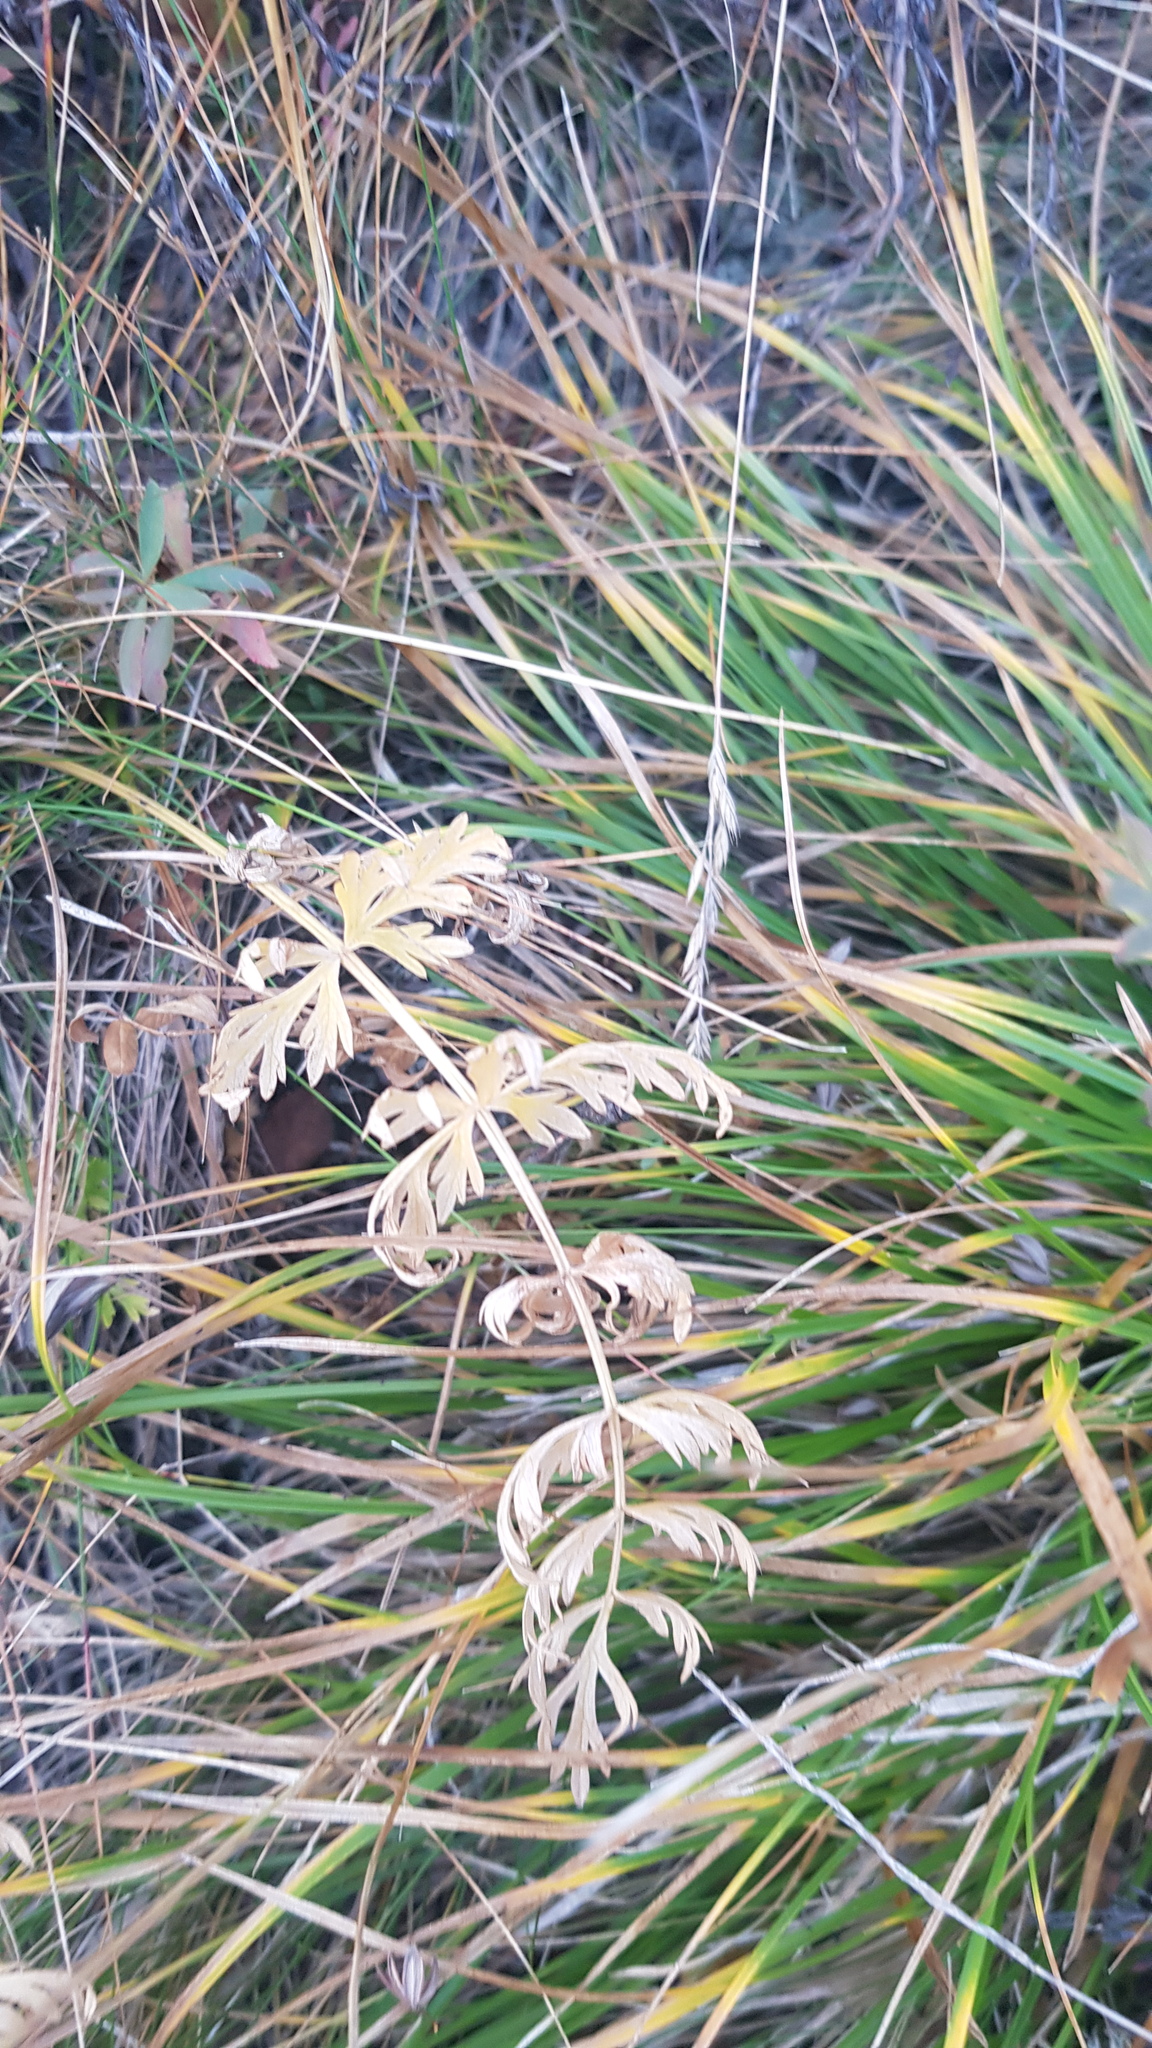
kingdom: Plantae
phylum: Tracheophyta
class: Magnoliopsida
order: Apiales
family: Apiaceae
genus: Seseli
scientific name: Seseli condensatum
